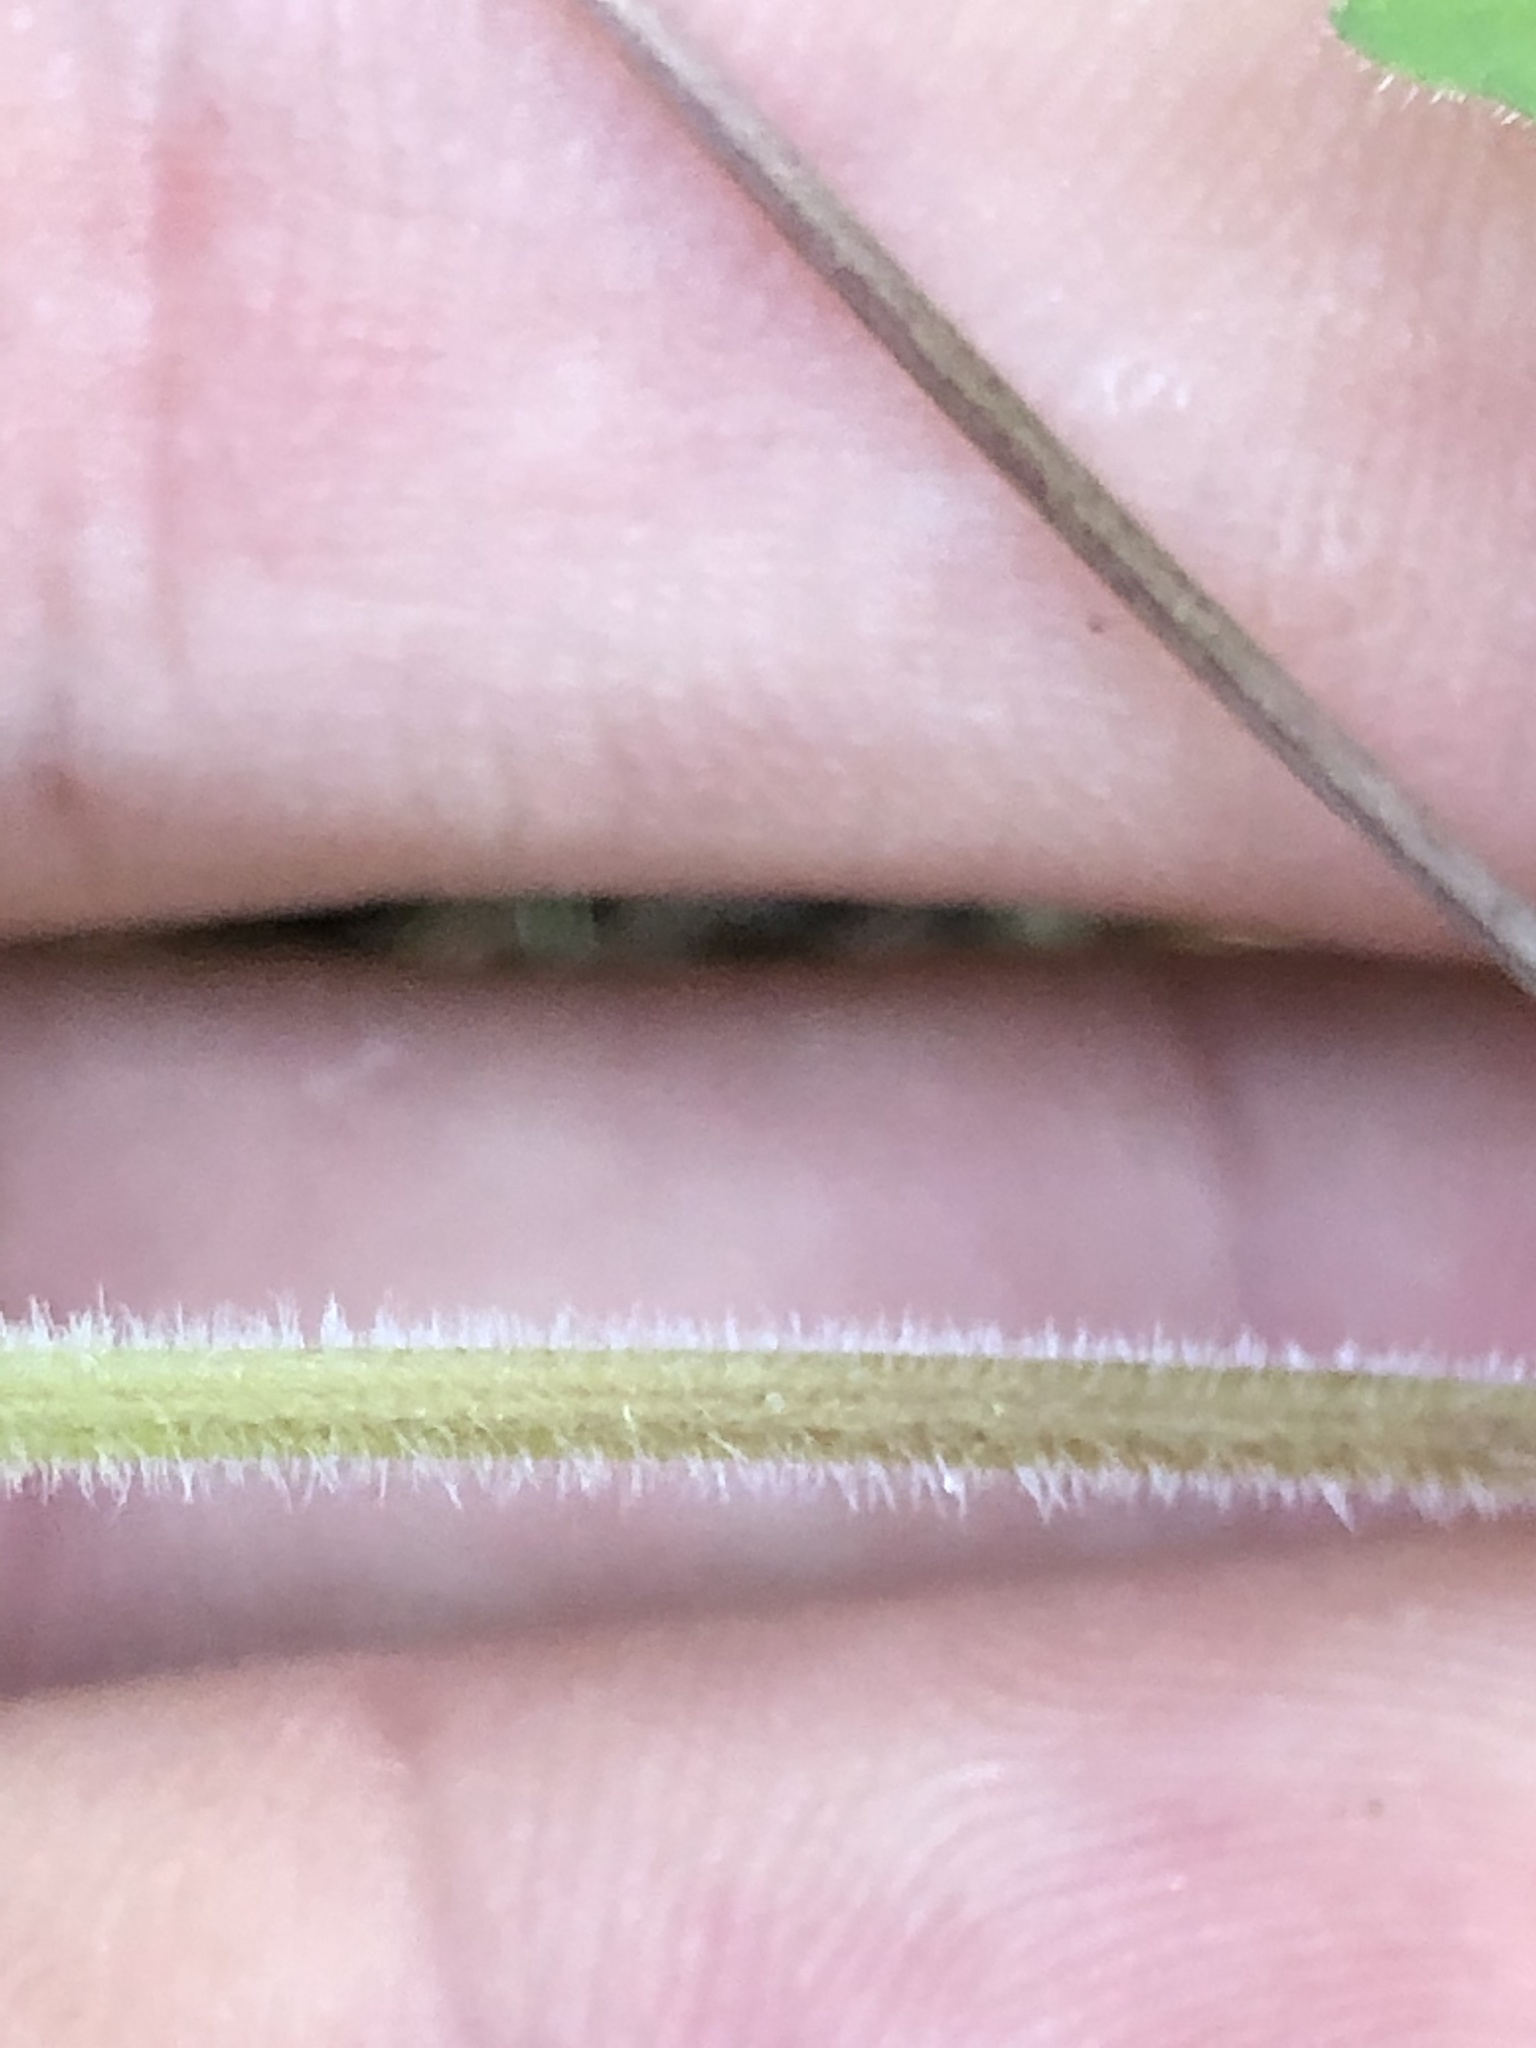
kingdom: Plantae
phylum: Tracheophyta
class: Magnoliopsida
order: Malpighiales
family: Violaceae
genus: Viola
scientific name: Viola ocellata
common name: Western heart's ease
